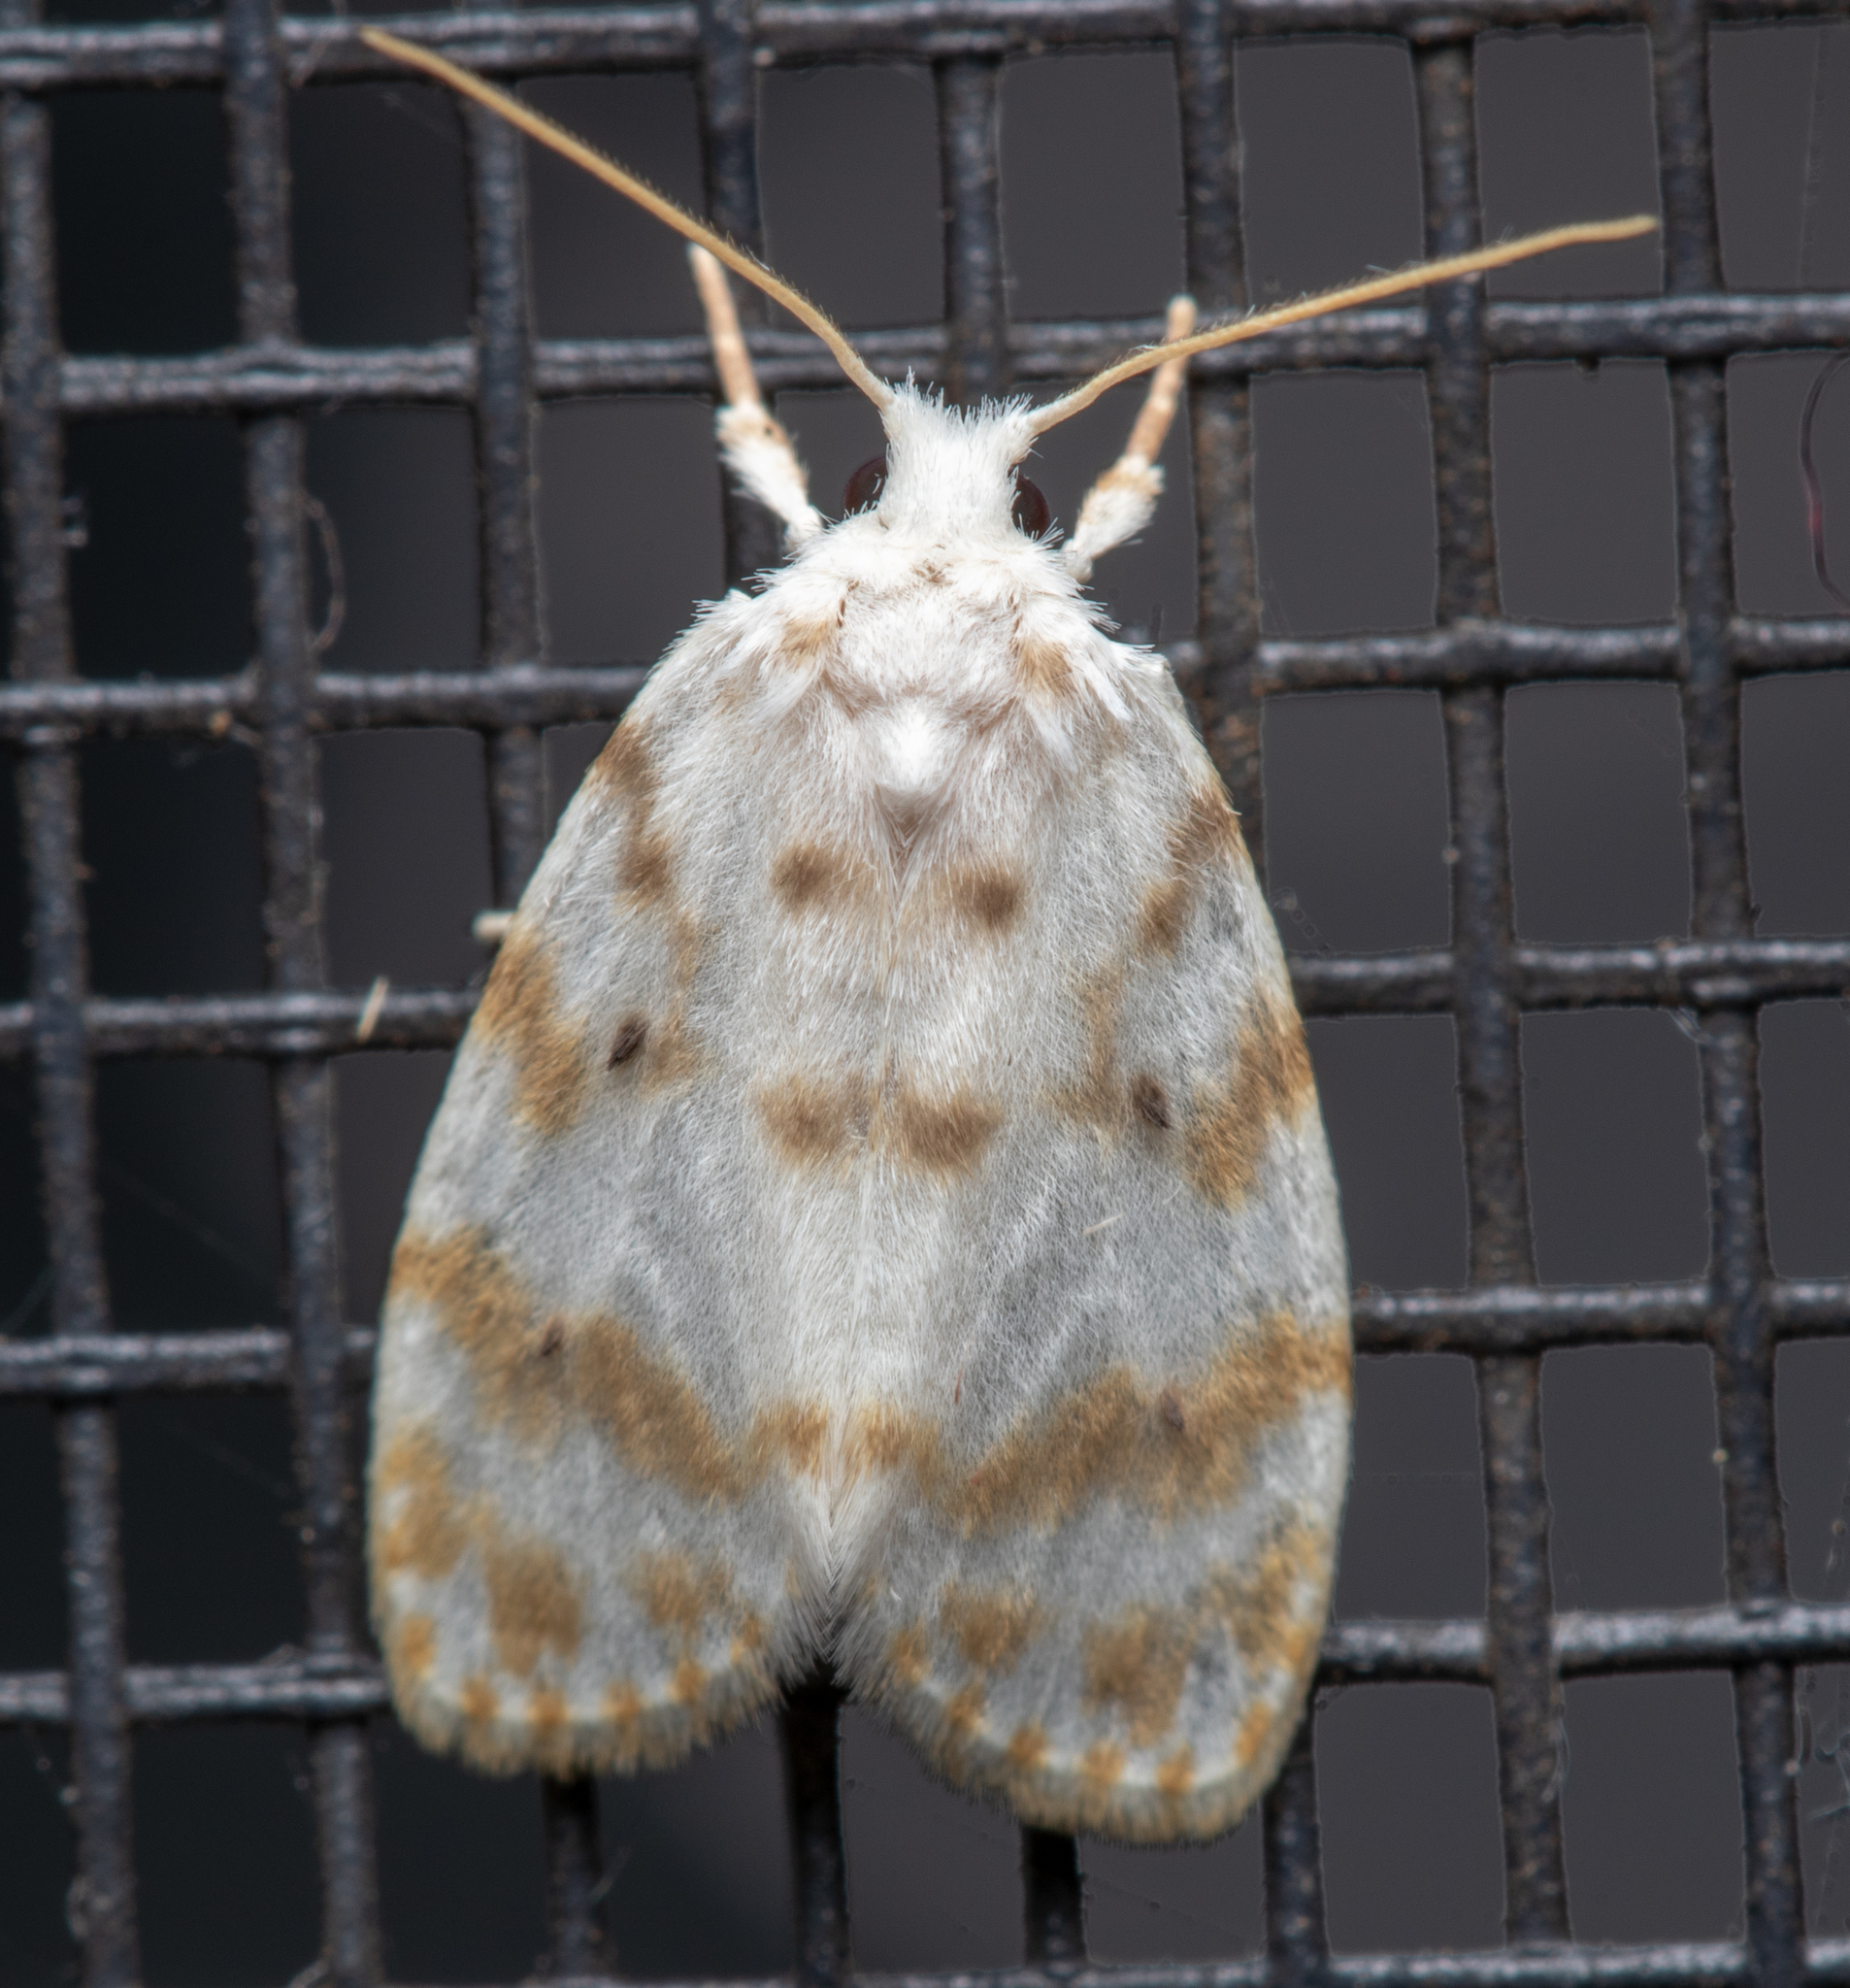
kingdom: Animalia
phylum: Arthropoda
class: Insecta
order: Lepidoptera
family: Erebidae
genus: Schistophleps
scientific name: Schistophleps albida
